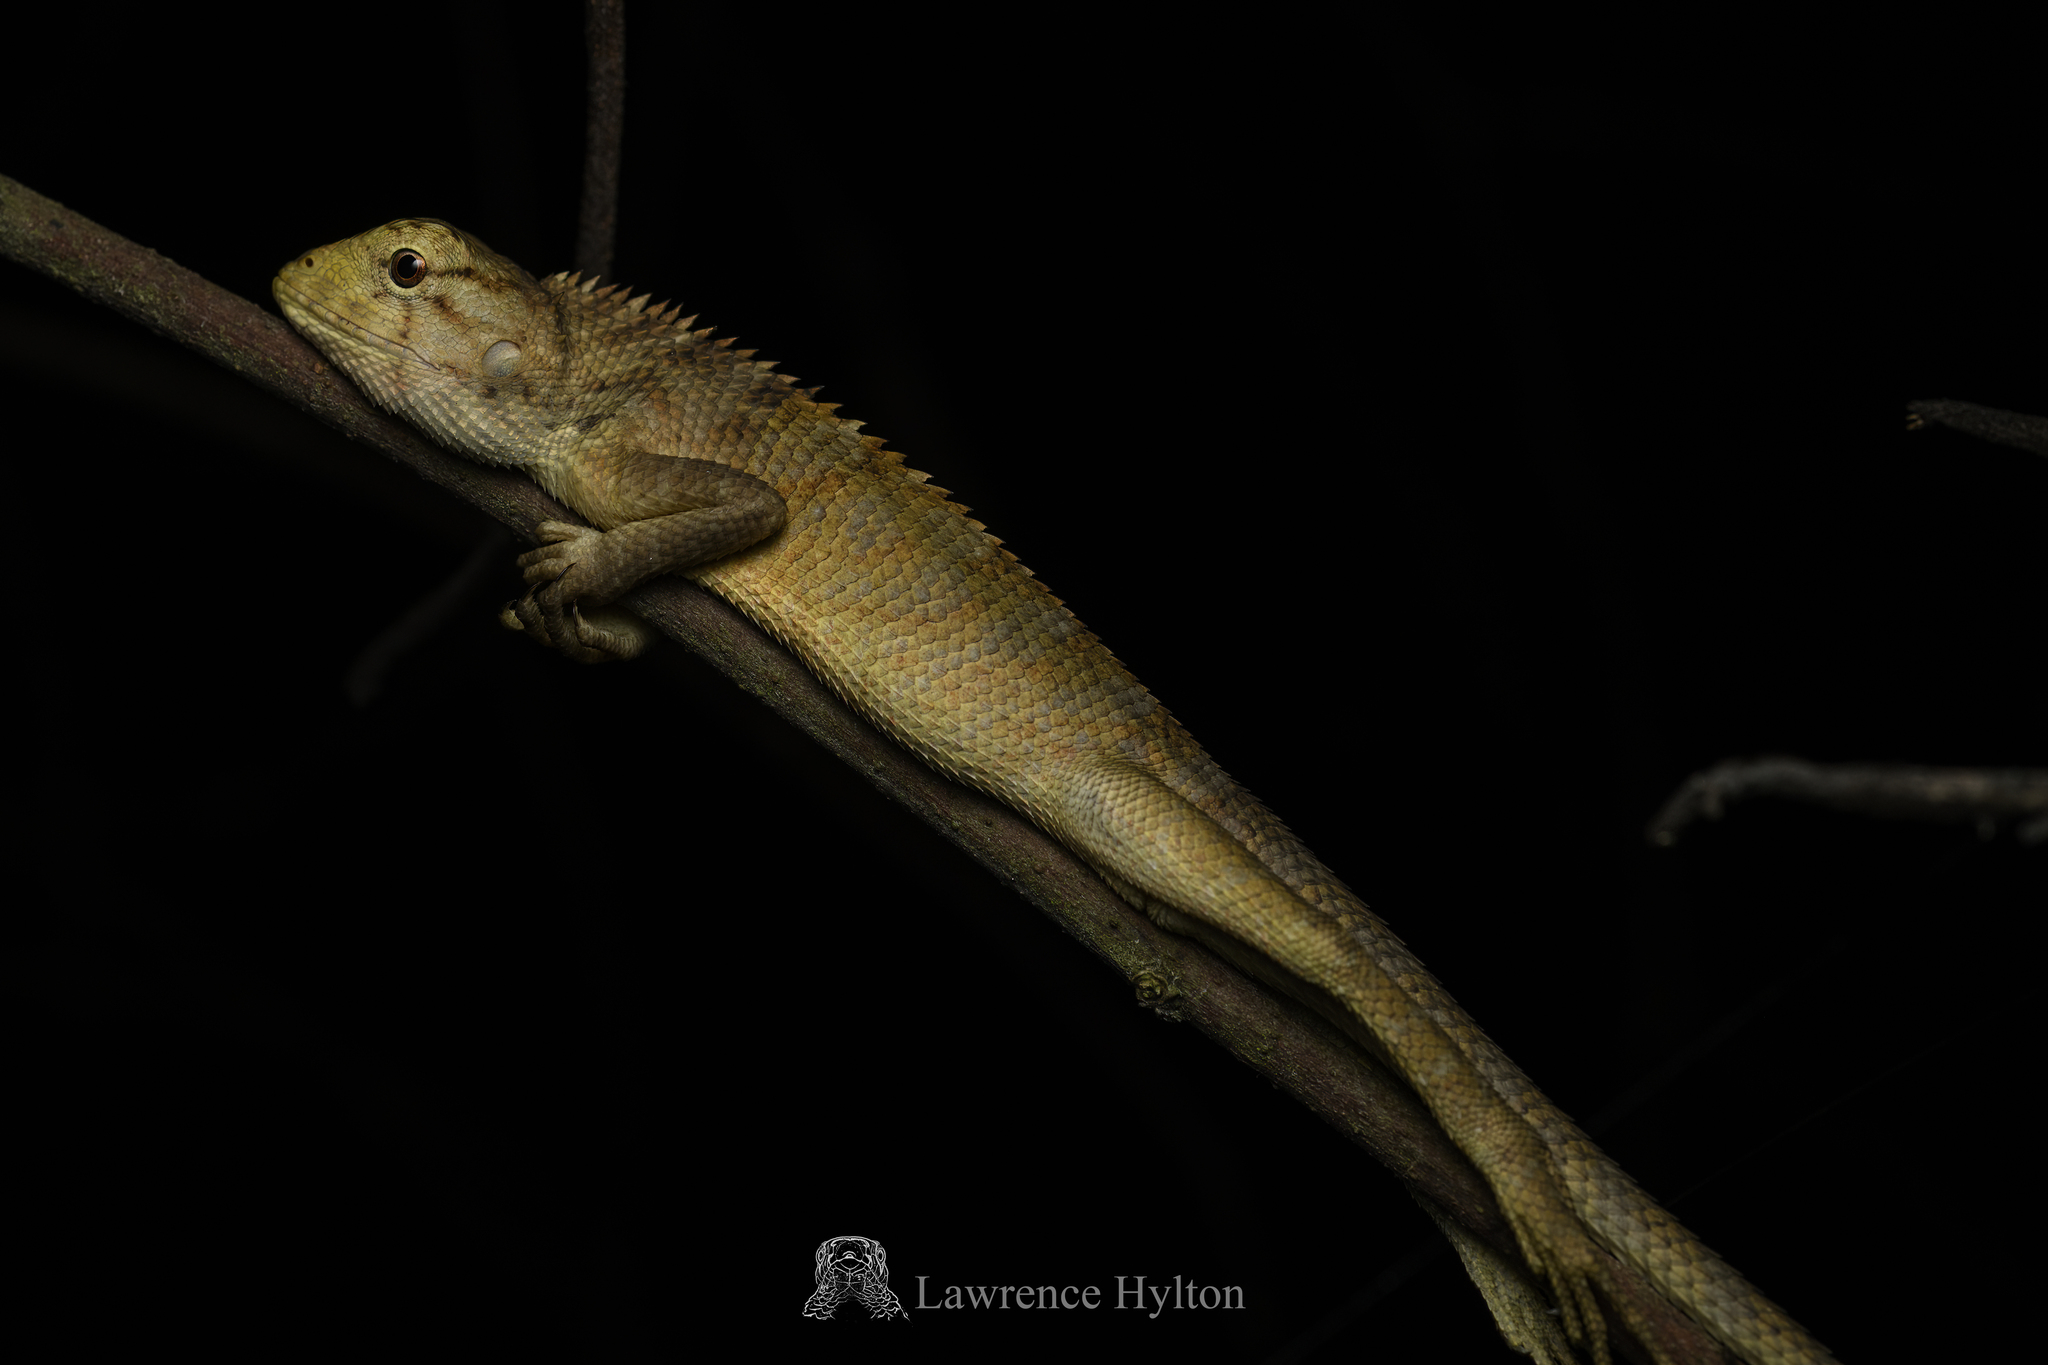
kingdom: Animalia
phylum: Chordata
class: Squamata
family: Agamidae
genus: Calotes
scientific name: Calotes versicolor
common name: Oriental garden lizard
